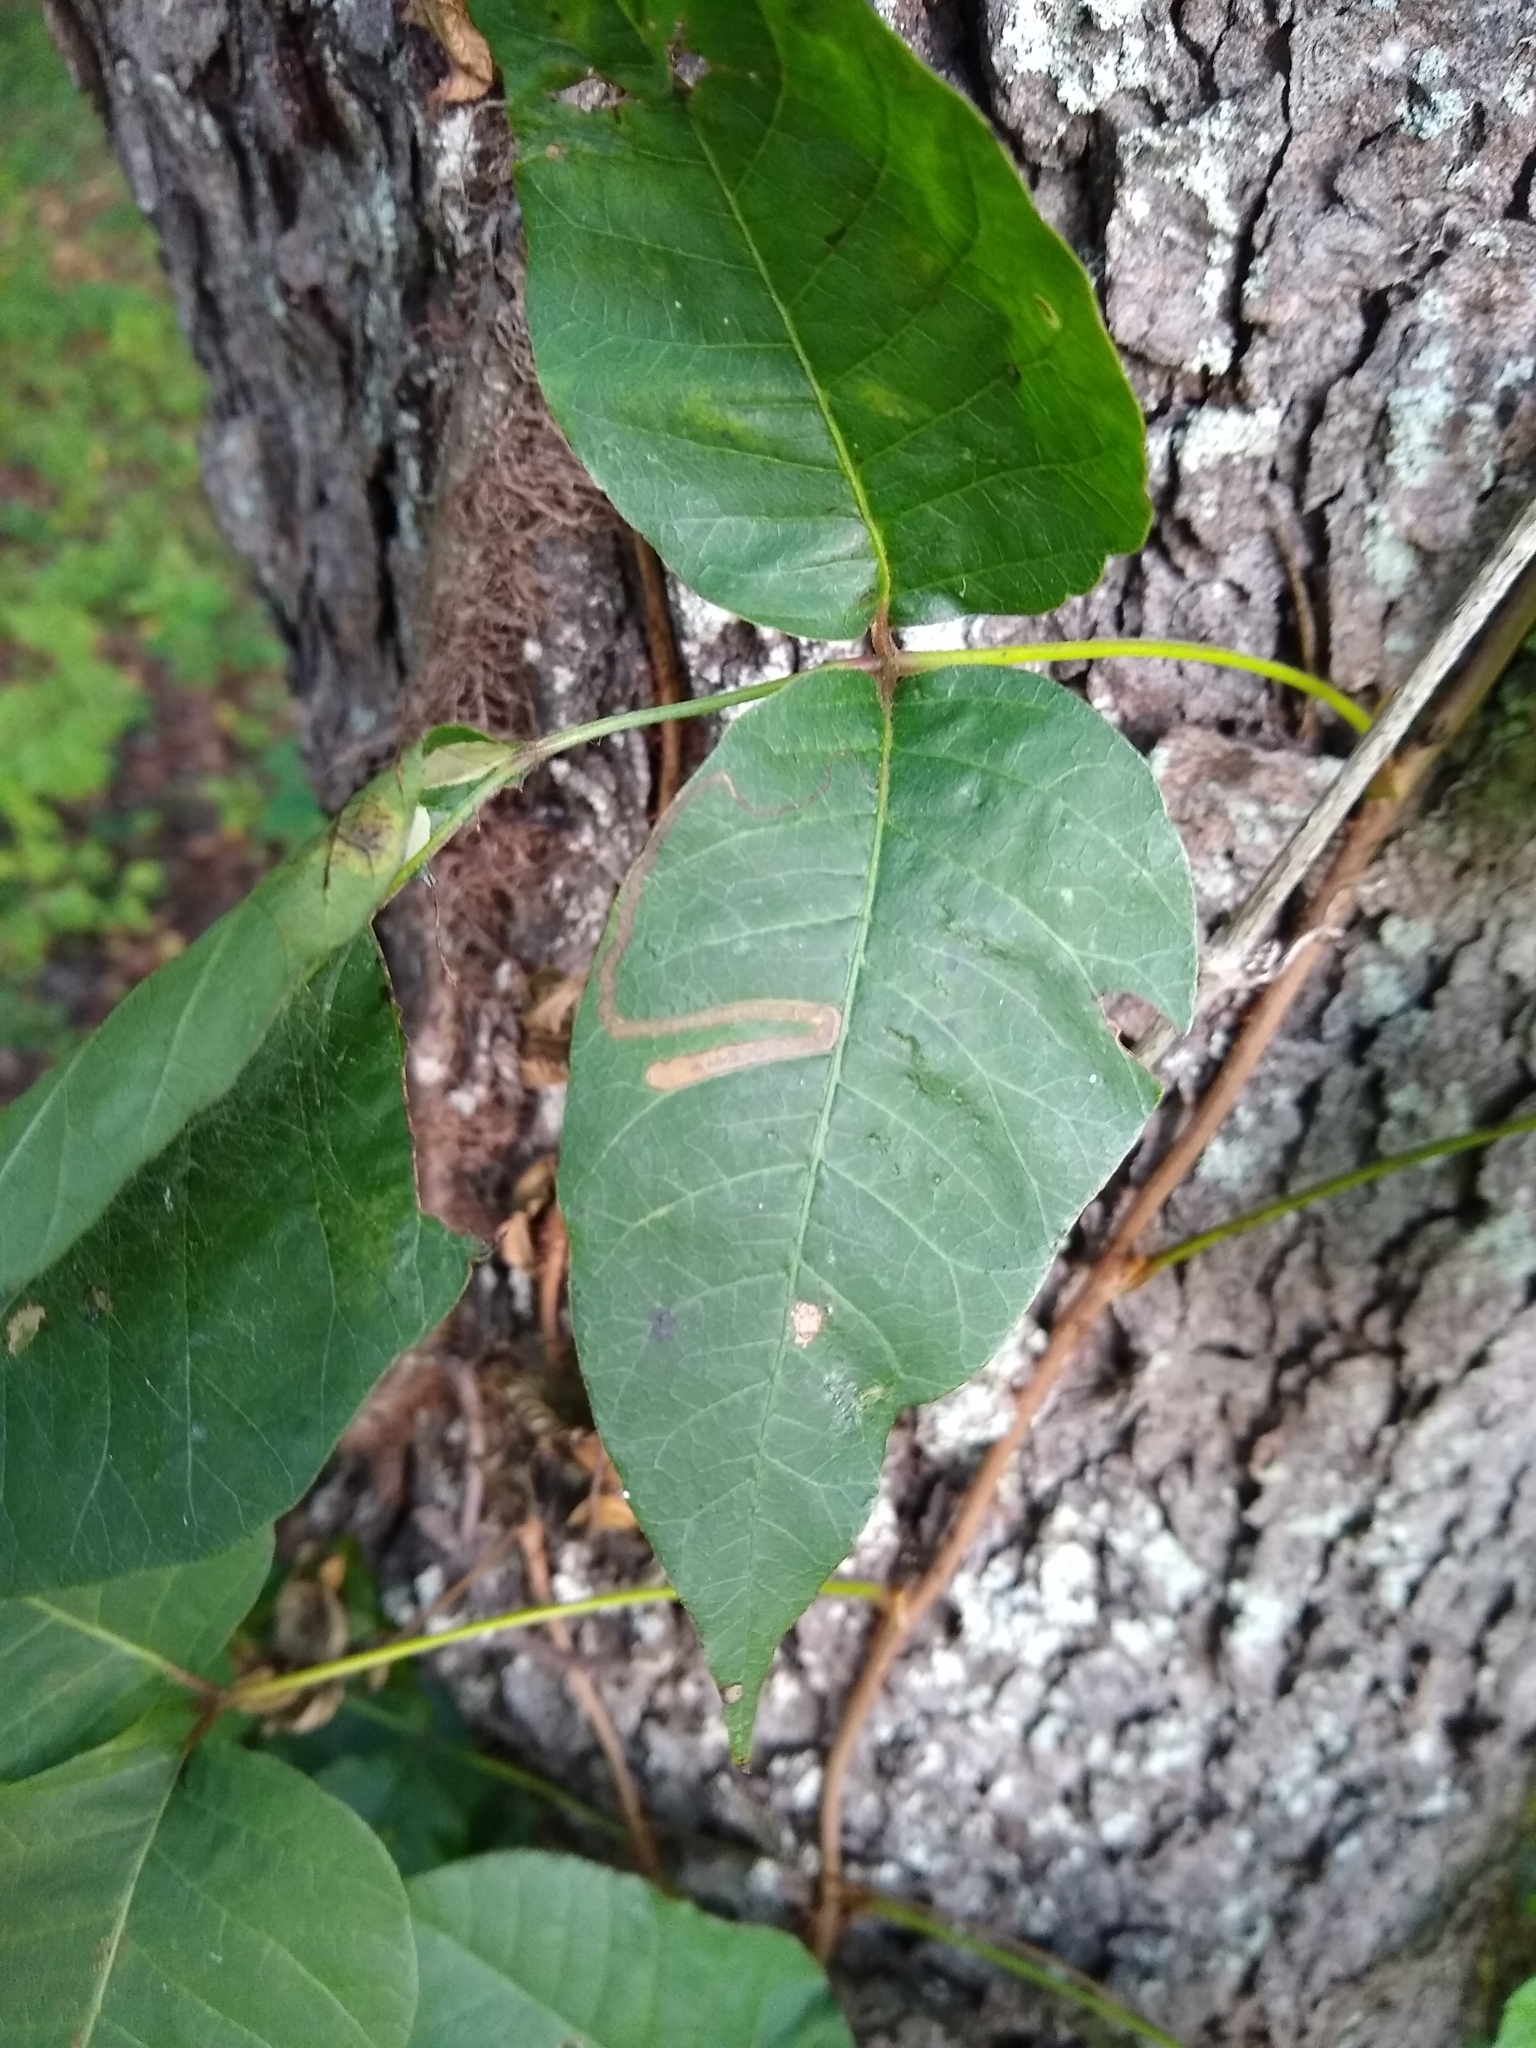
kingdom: Animalia
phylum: Arthropoda
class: Insecta
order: Lepidoptera
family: Nepticulidae
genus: Stigmella
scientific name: Stigmella rhoifoliella
